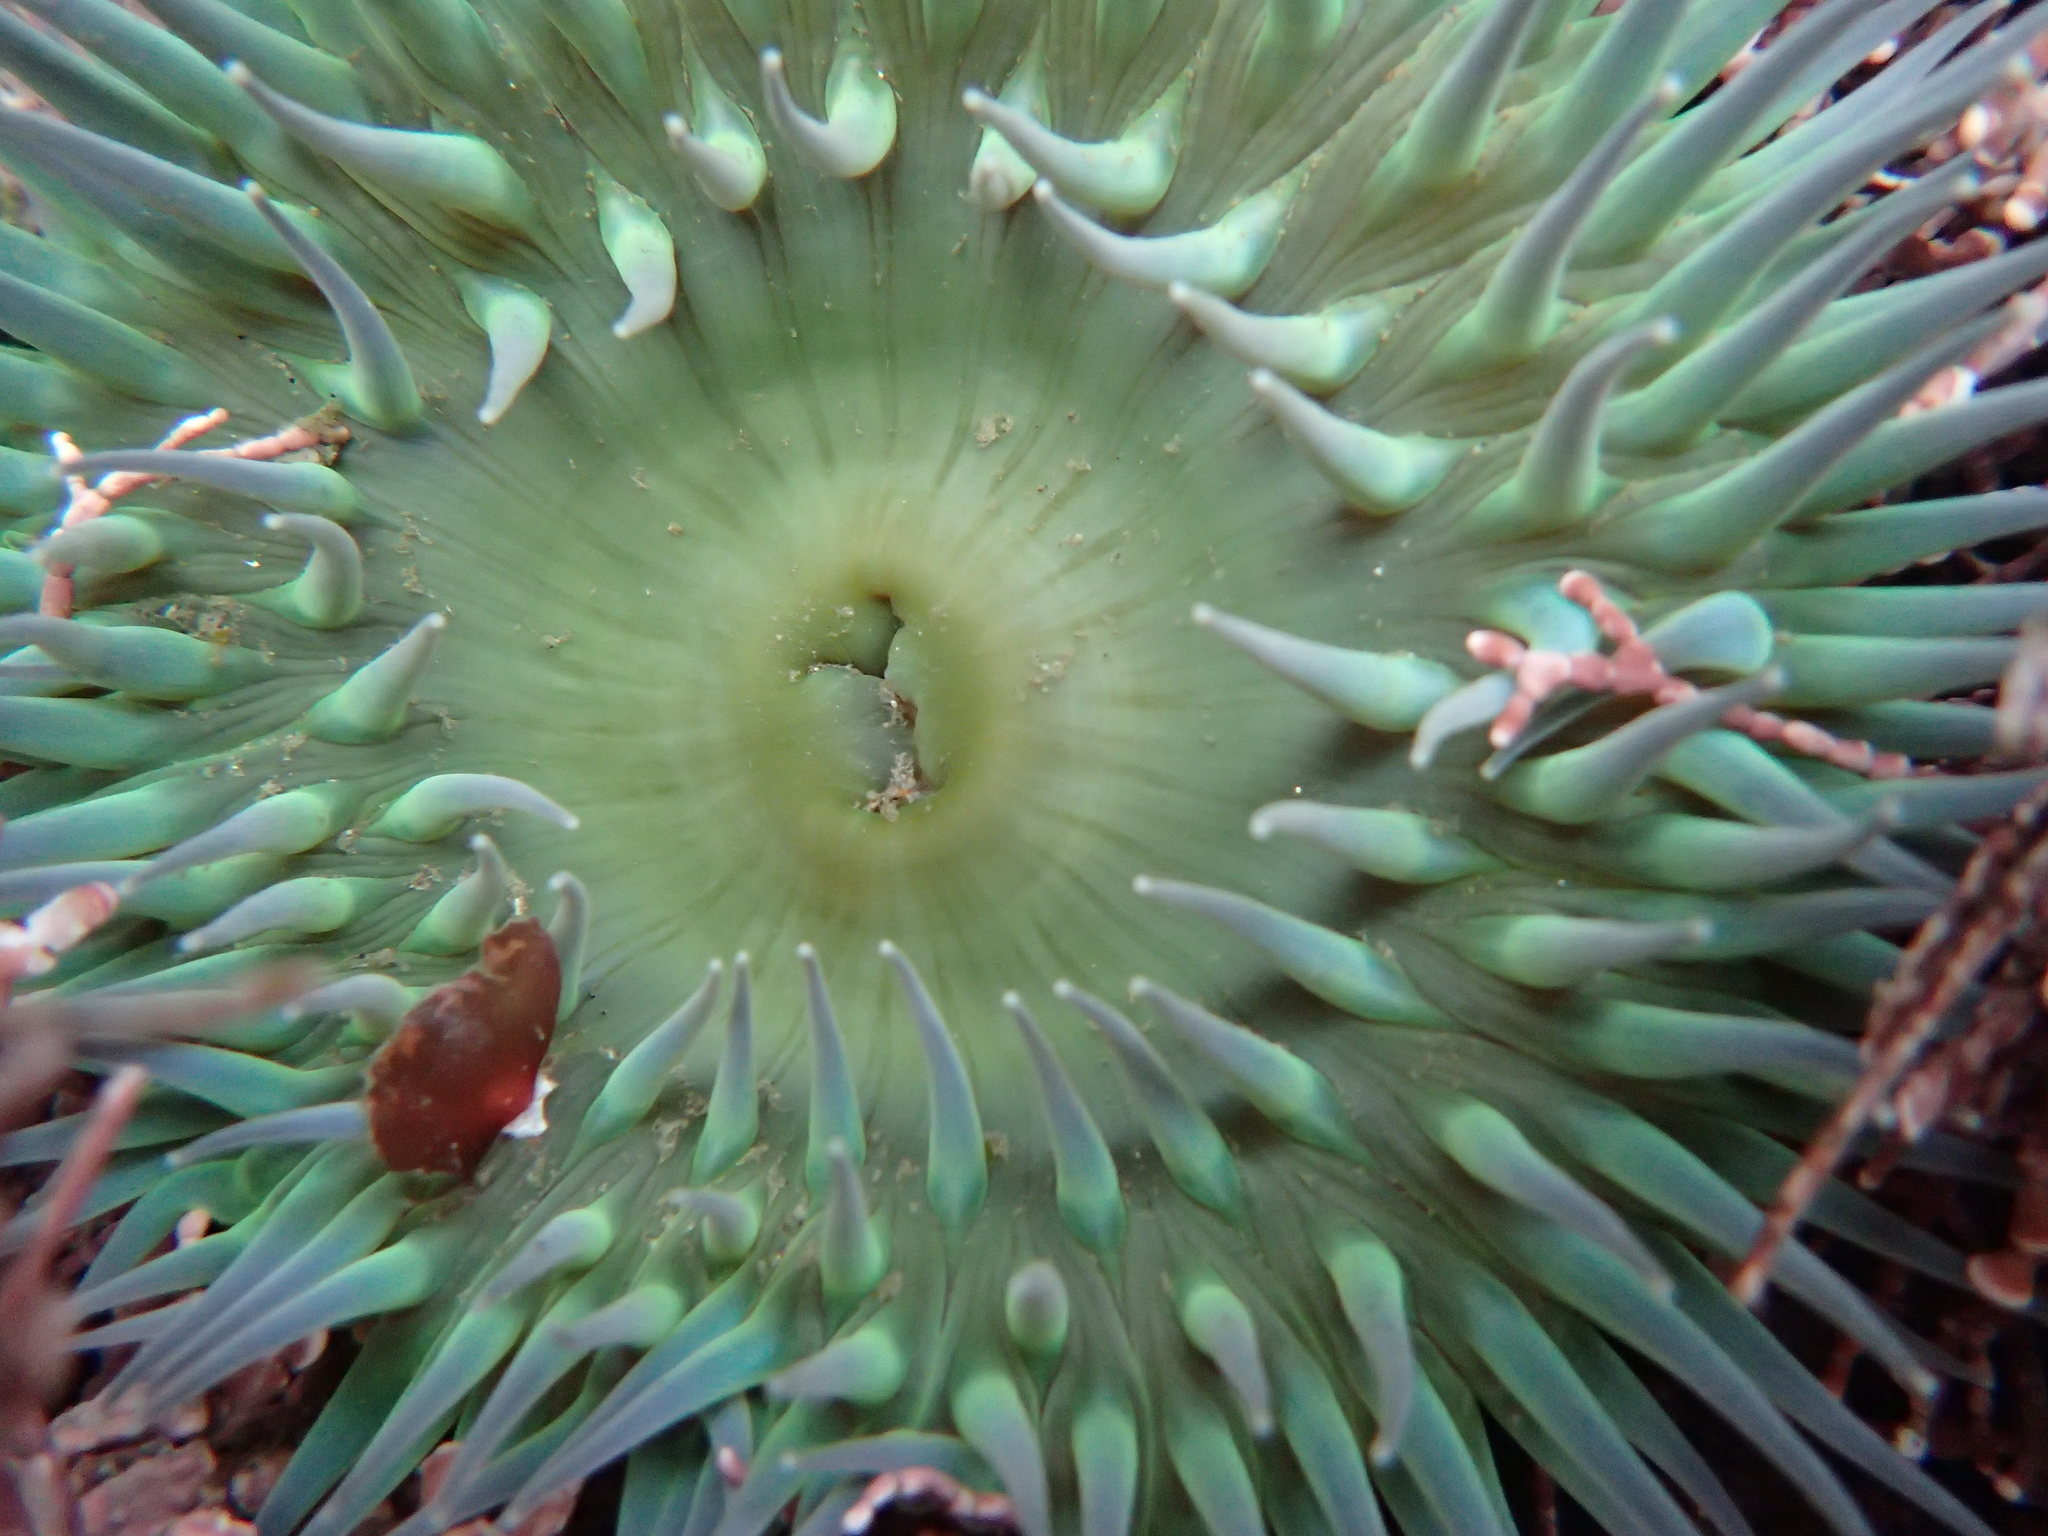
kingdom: Animalia
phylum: Cnidaria
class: Anthozoa
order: Actiniaria
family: Actiniidae
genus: Anthopleura
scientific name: Anthopleura xanthogrammica
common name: Giant green anemone
